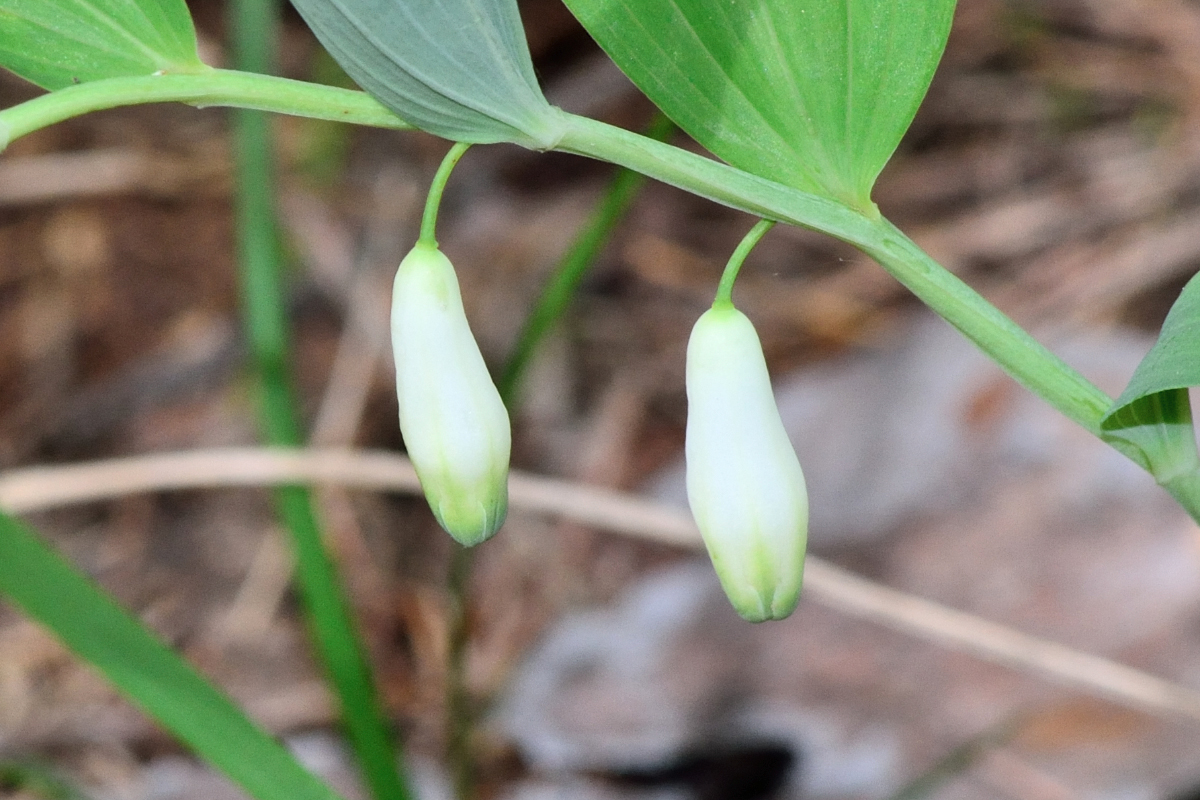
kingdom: Plantae
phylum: Tracheophyta
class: Liliopsida
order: Asparagales
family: Asparagaceae
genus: Polygonatum
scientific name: Polygonatum odoratum
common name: Angular solomon's-seal
